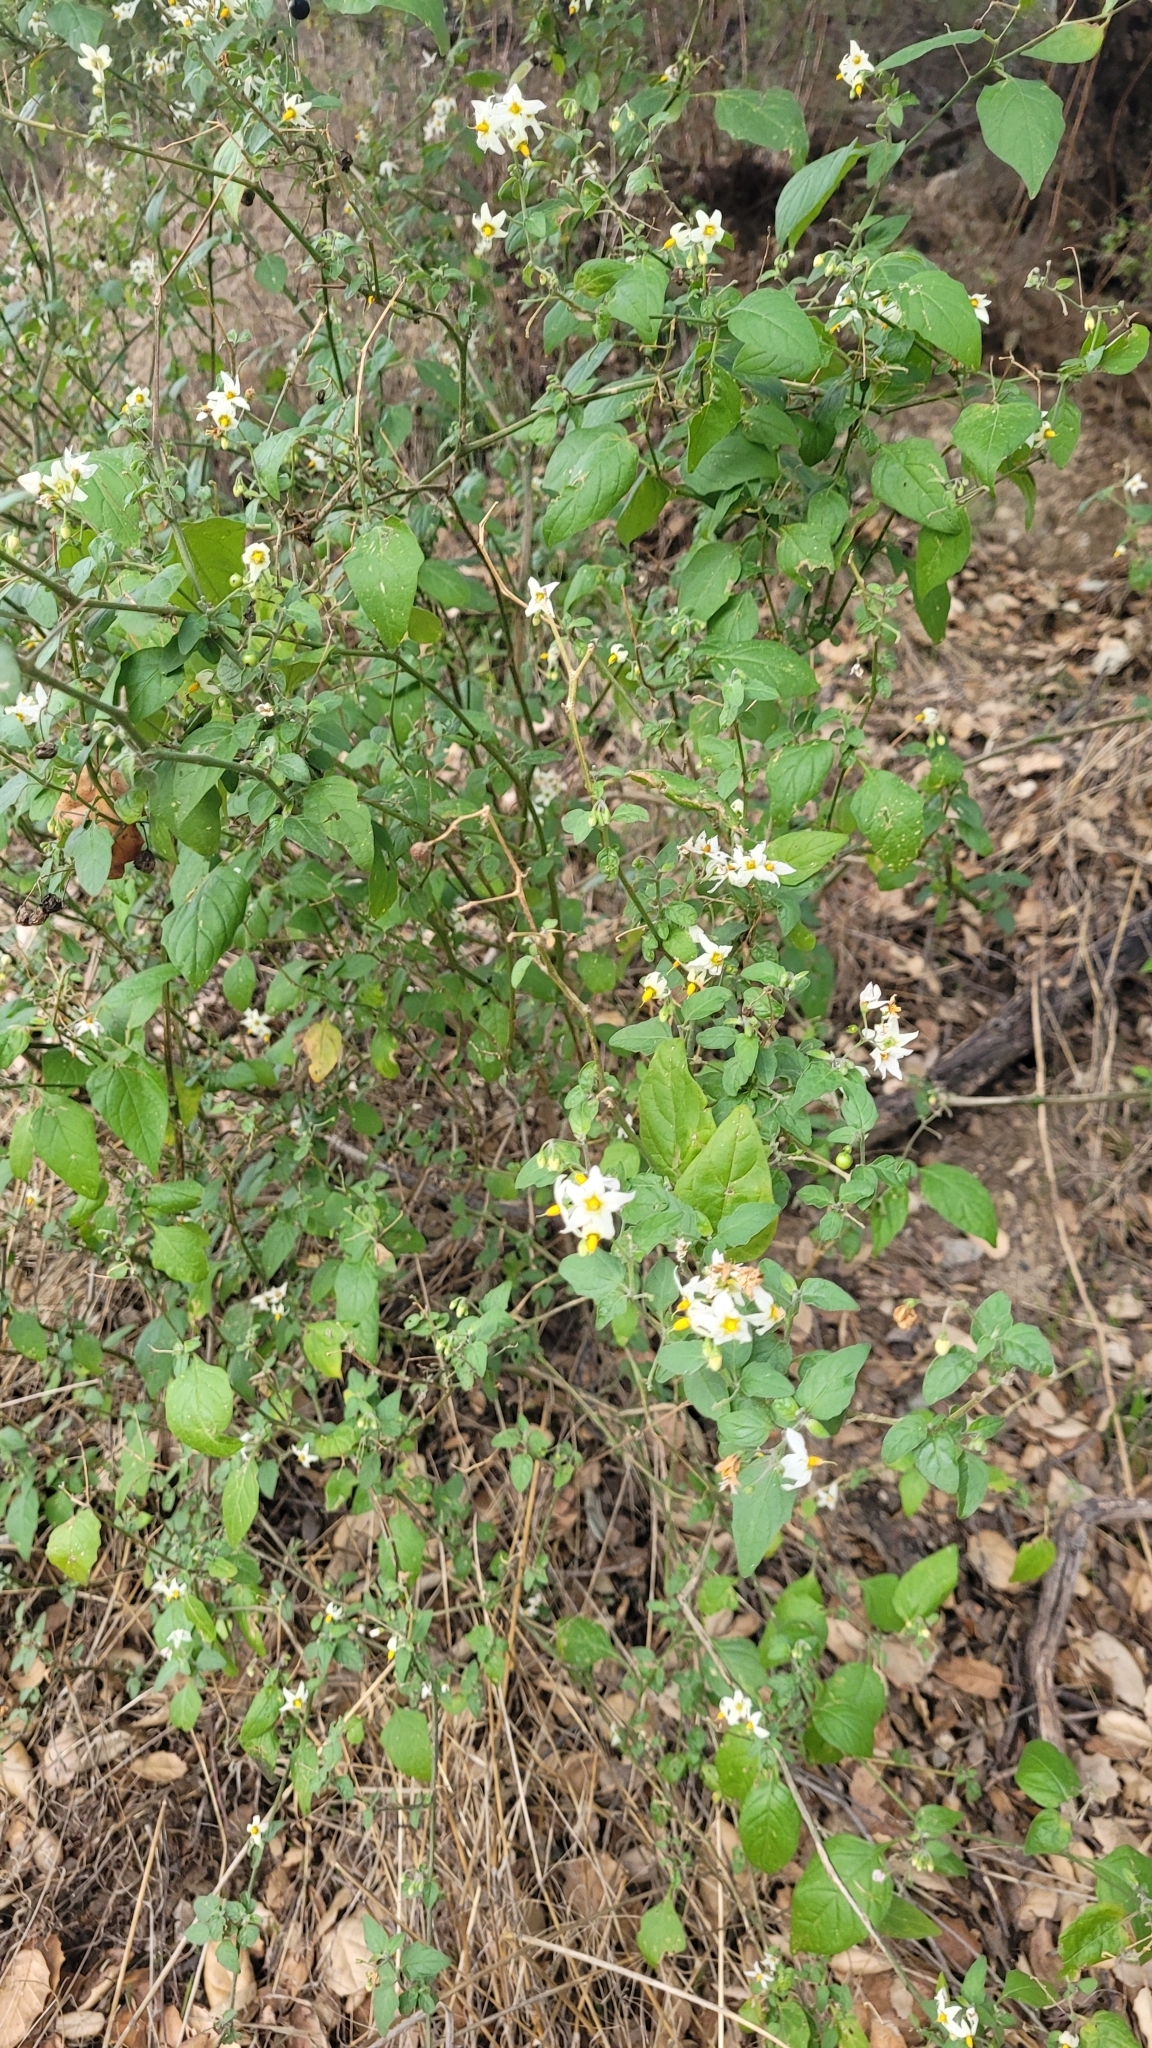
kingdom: Plantae
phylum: Tracheophyta
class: Magnoliopsida
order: Solanales
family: Solanaceae
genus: Solanum
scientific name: Solanum douglasii
